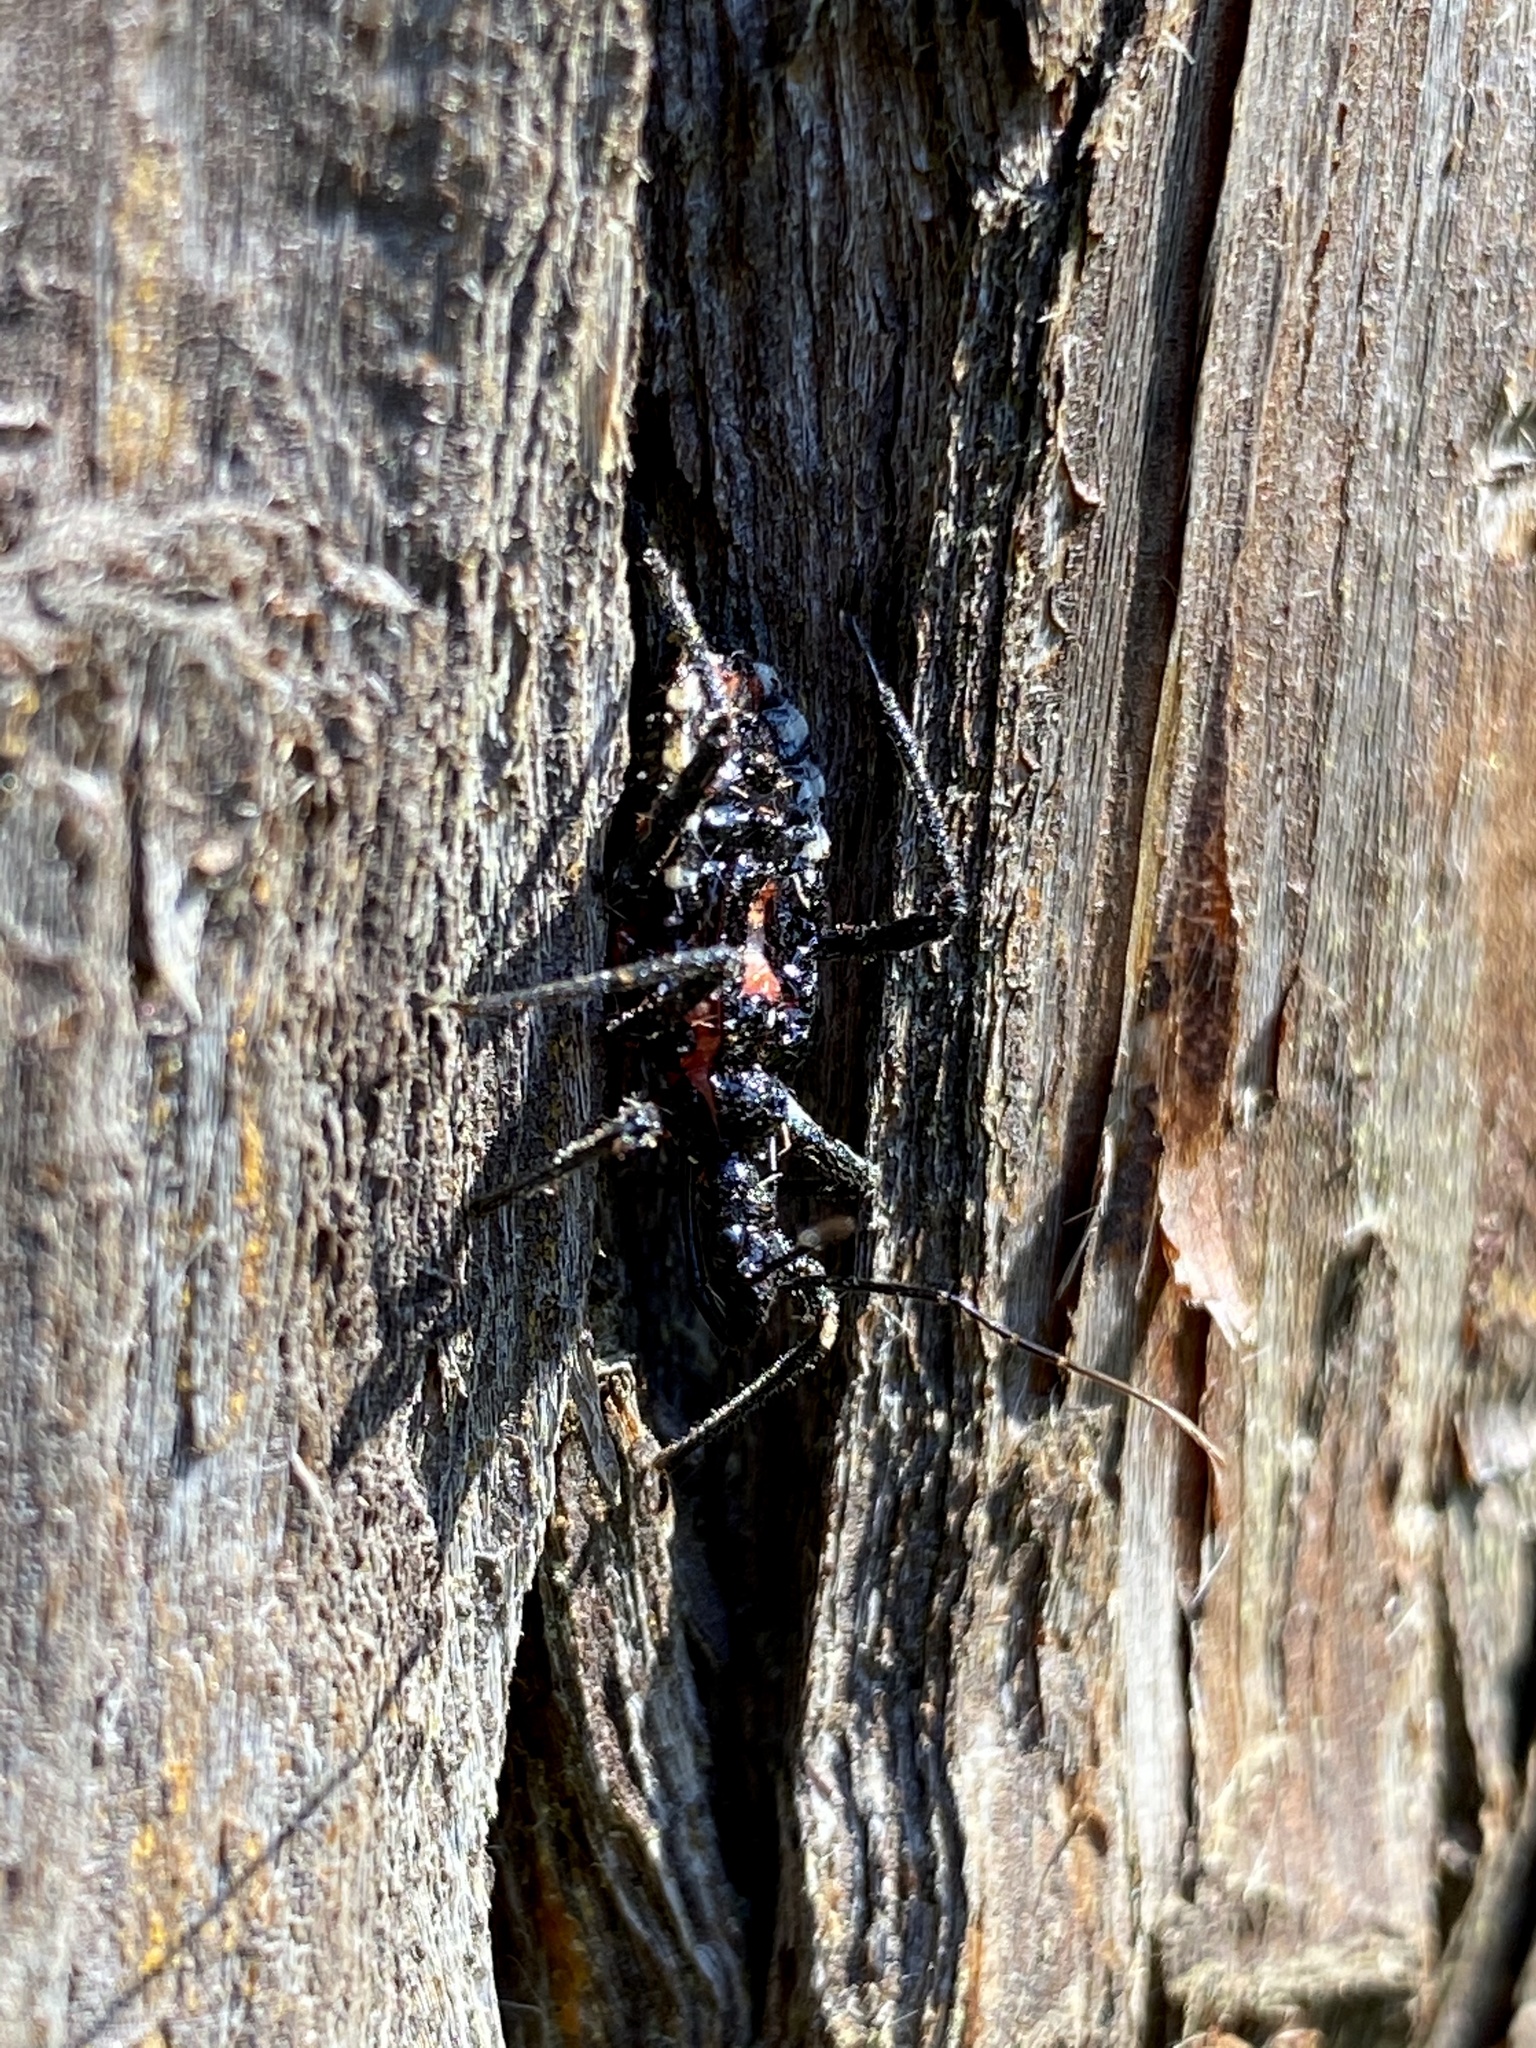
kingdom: Animalia
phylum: Arthropoda
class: Insecta
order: Hemiptera
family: Reduviidae
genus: Agriosphodrus
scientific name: Agriosphodrus dohrni
